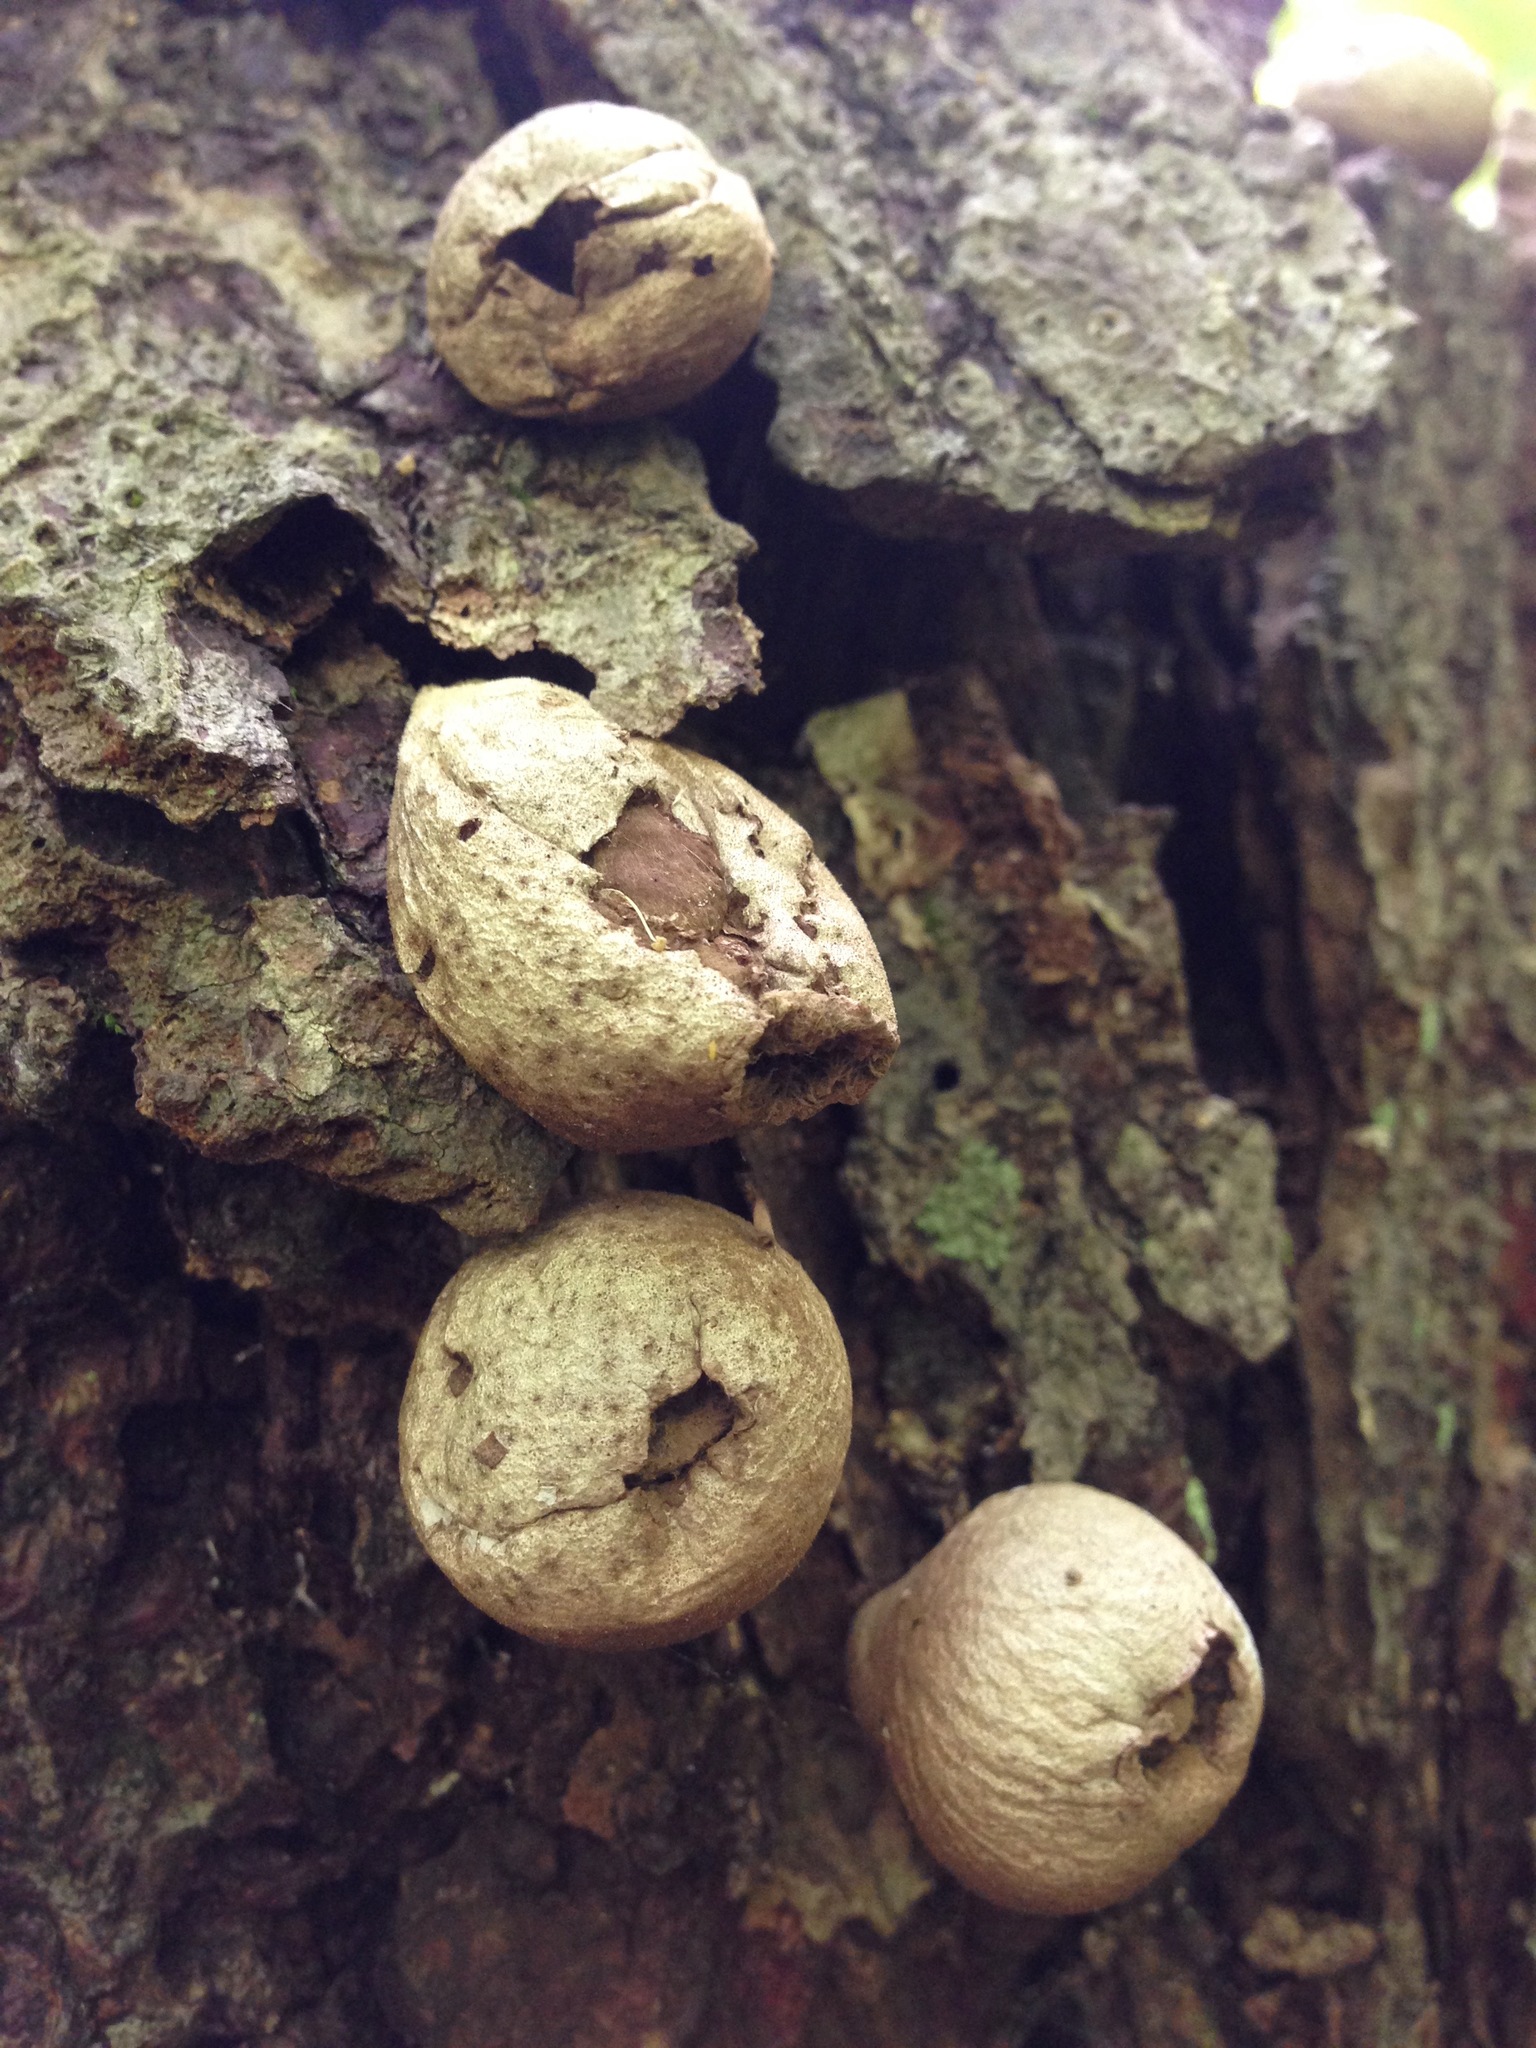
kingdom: Fungi
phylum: Basidiomycota
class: Agaricomycetes
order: Agaricales
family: Lycoperdaceae
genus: Apioperdon
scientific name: Apioperdon pyriforme
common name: Pear-shaped puffball
